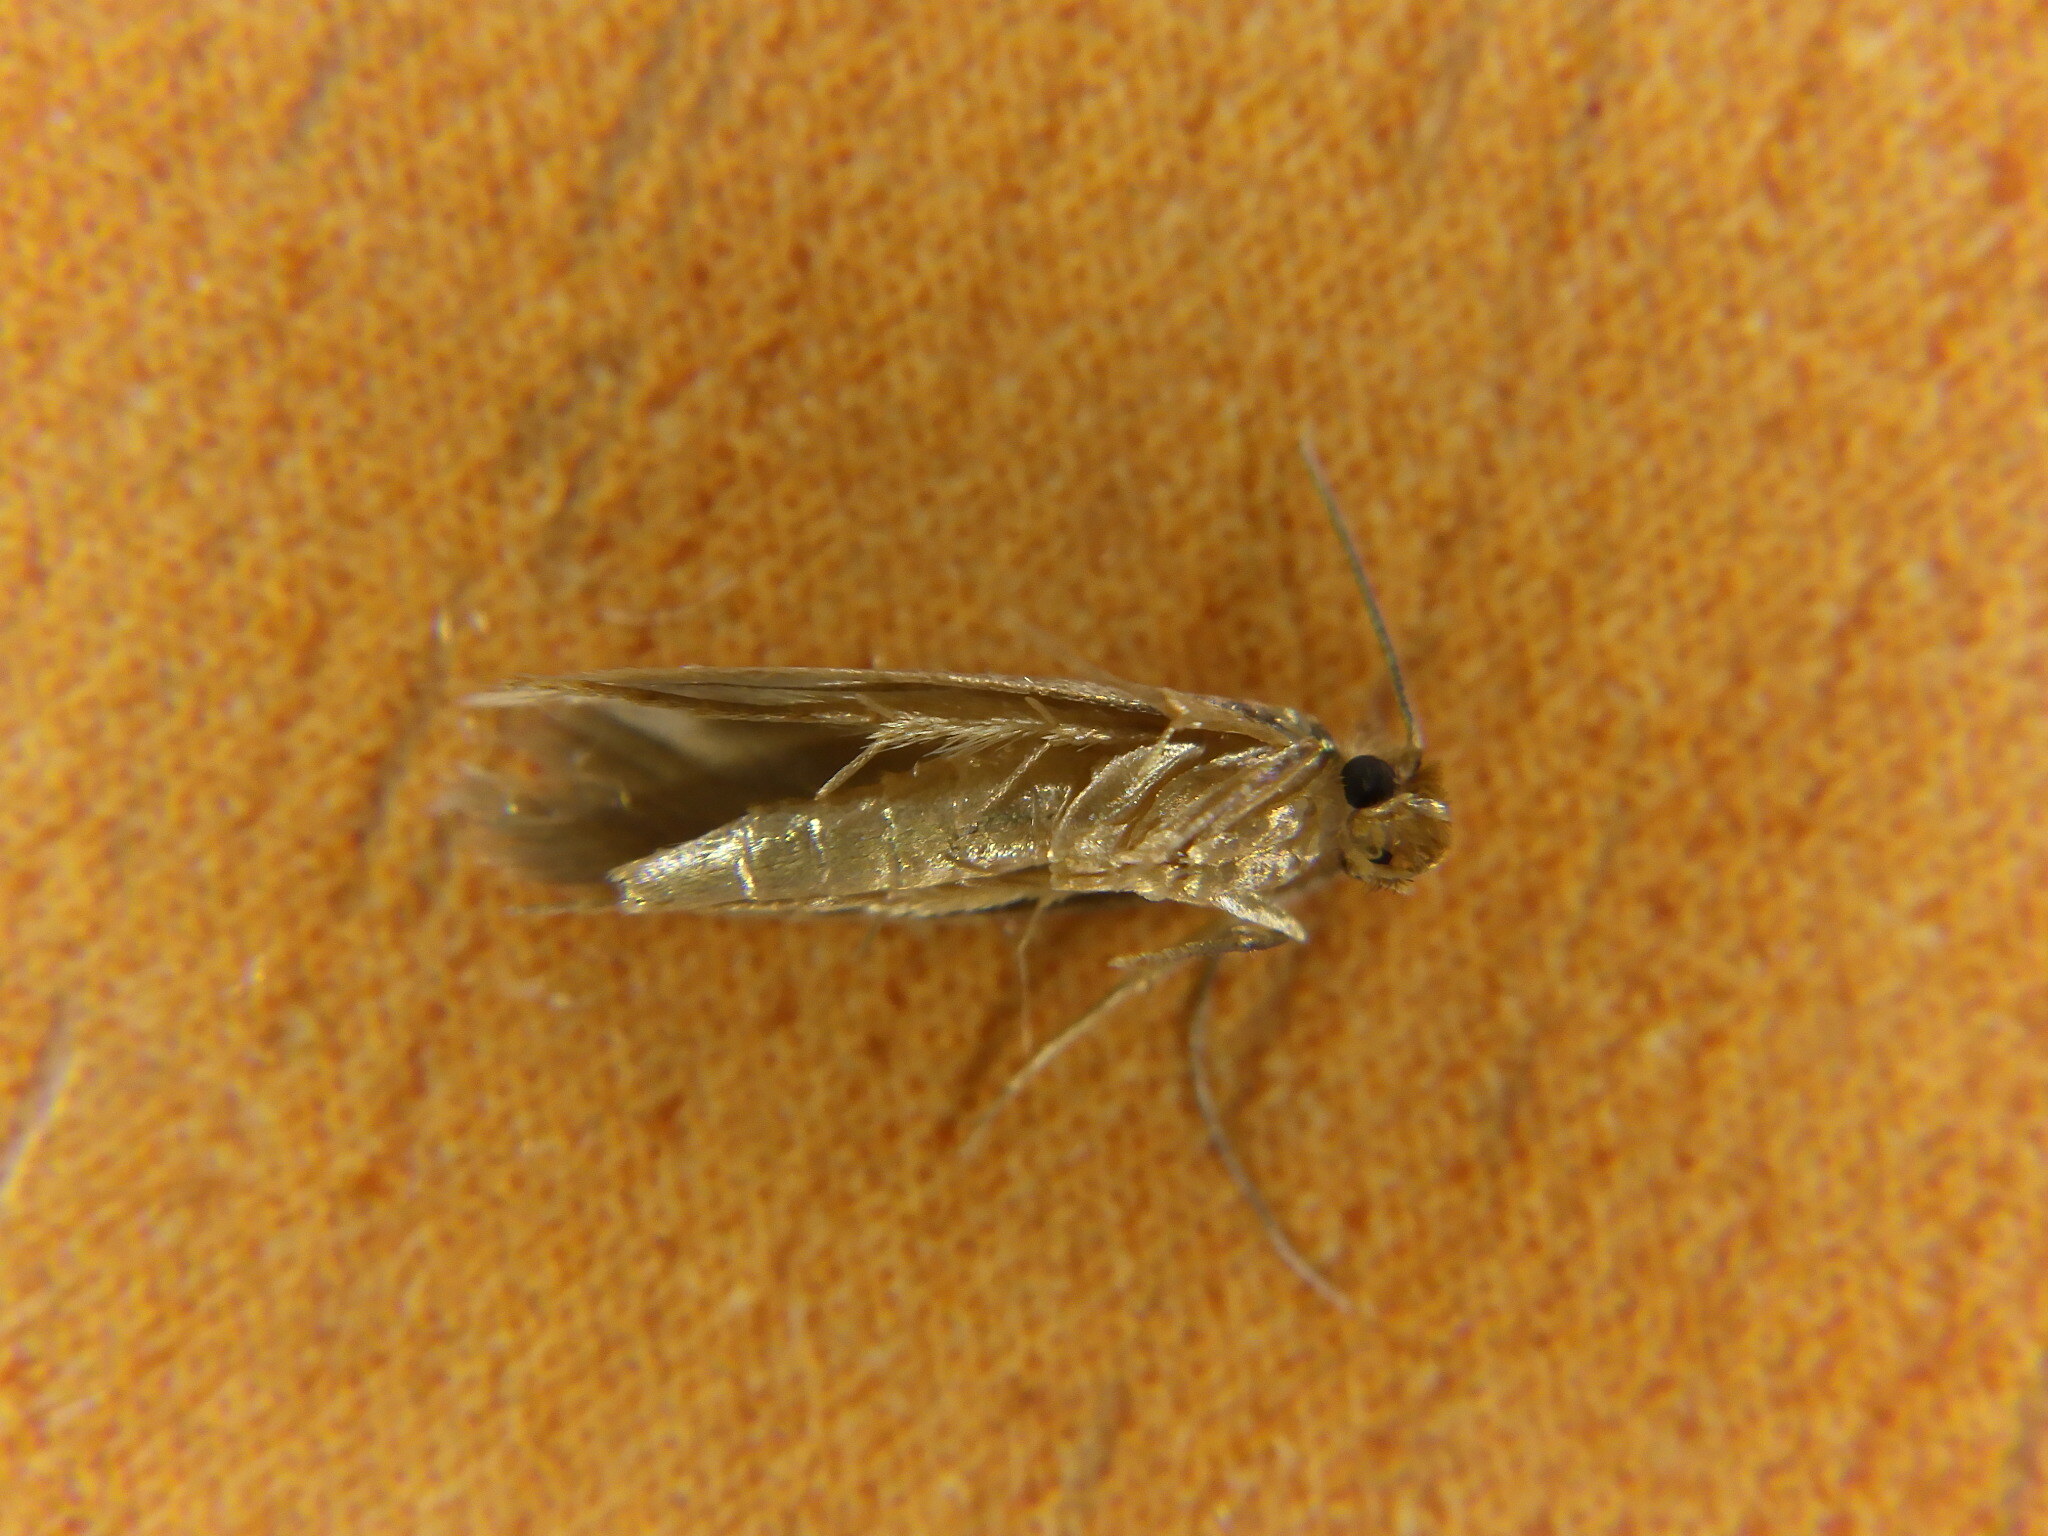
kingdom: Animalia
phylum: Arthropoda
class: Insecta
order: Lepidoptera
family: Tineidae
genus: Tineola
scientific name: Tineola bisselliella
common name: Webbing clothes moth
